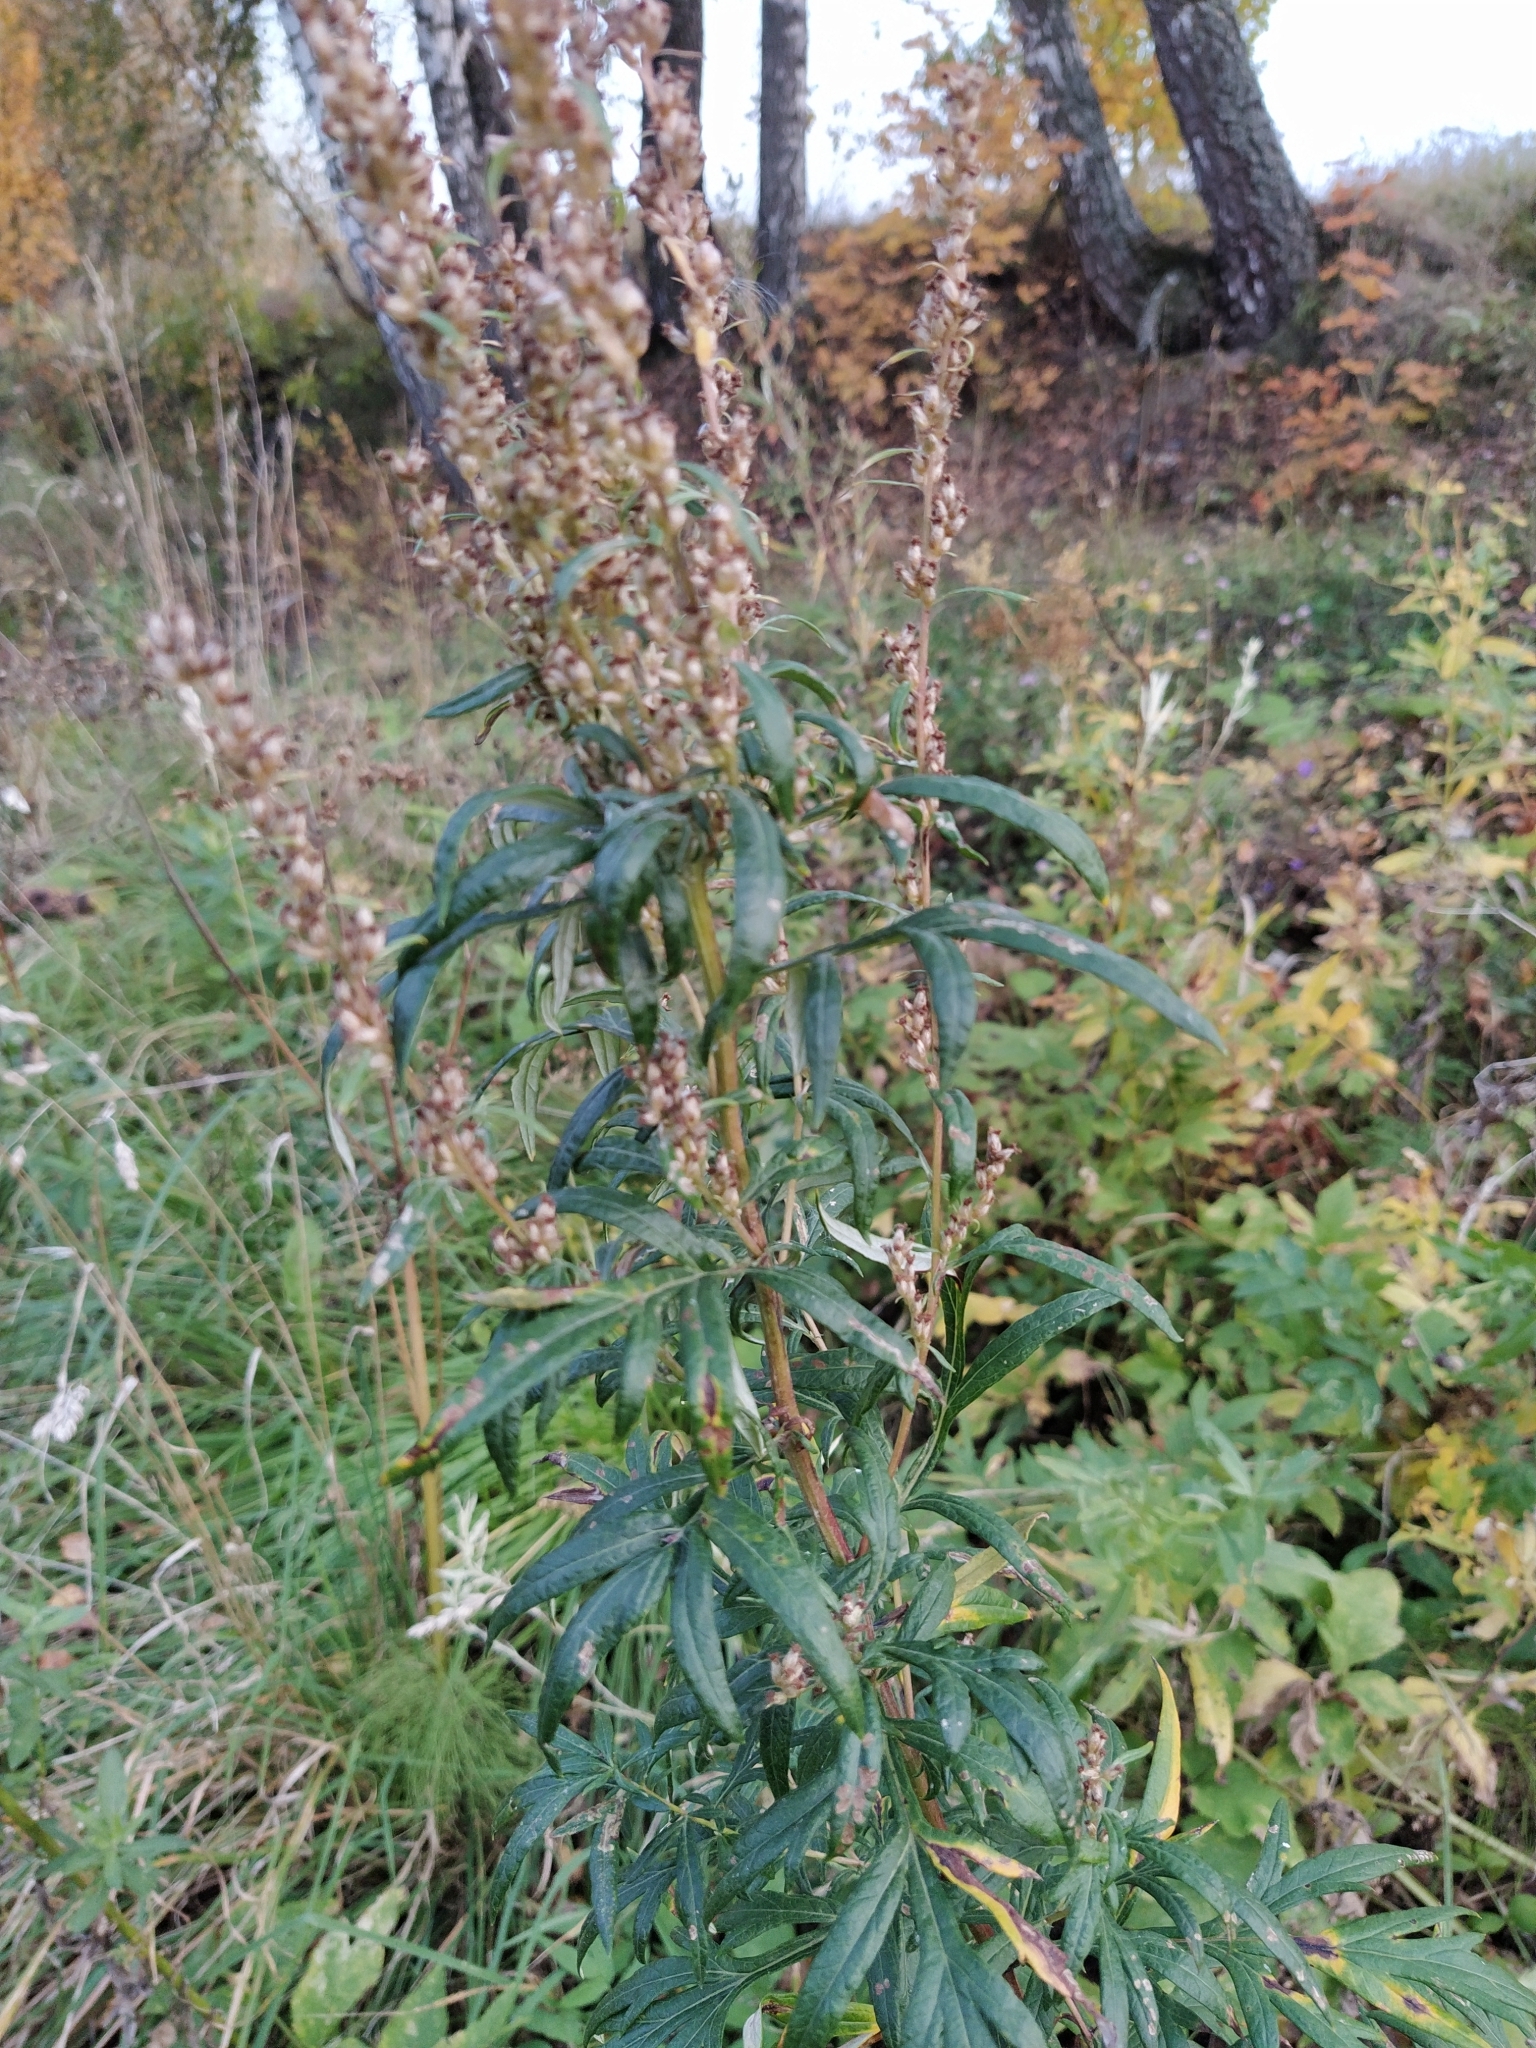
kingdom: Plantae
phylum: Tracheophyta
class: Magnoliopsida
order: Asterales
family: Asteraceae
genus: Artemisia
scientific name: Artemisia vulgaris
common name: Mugwort
